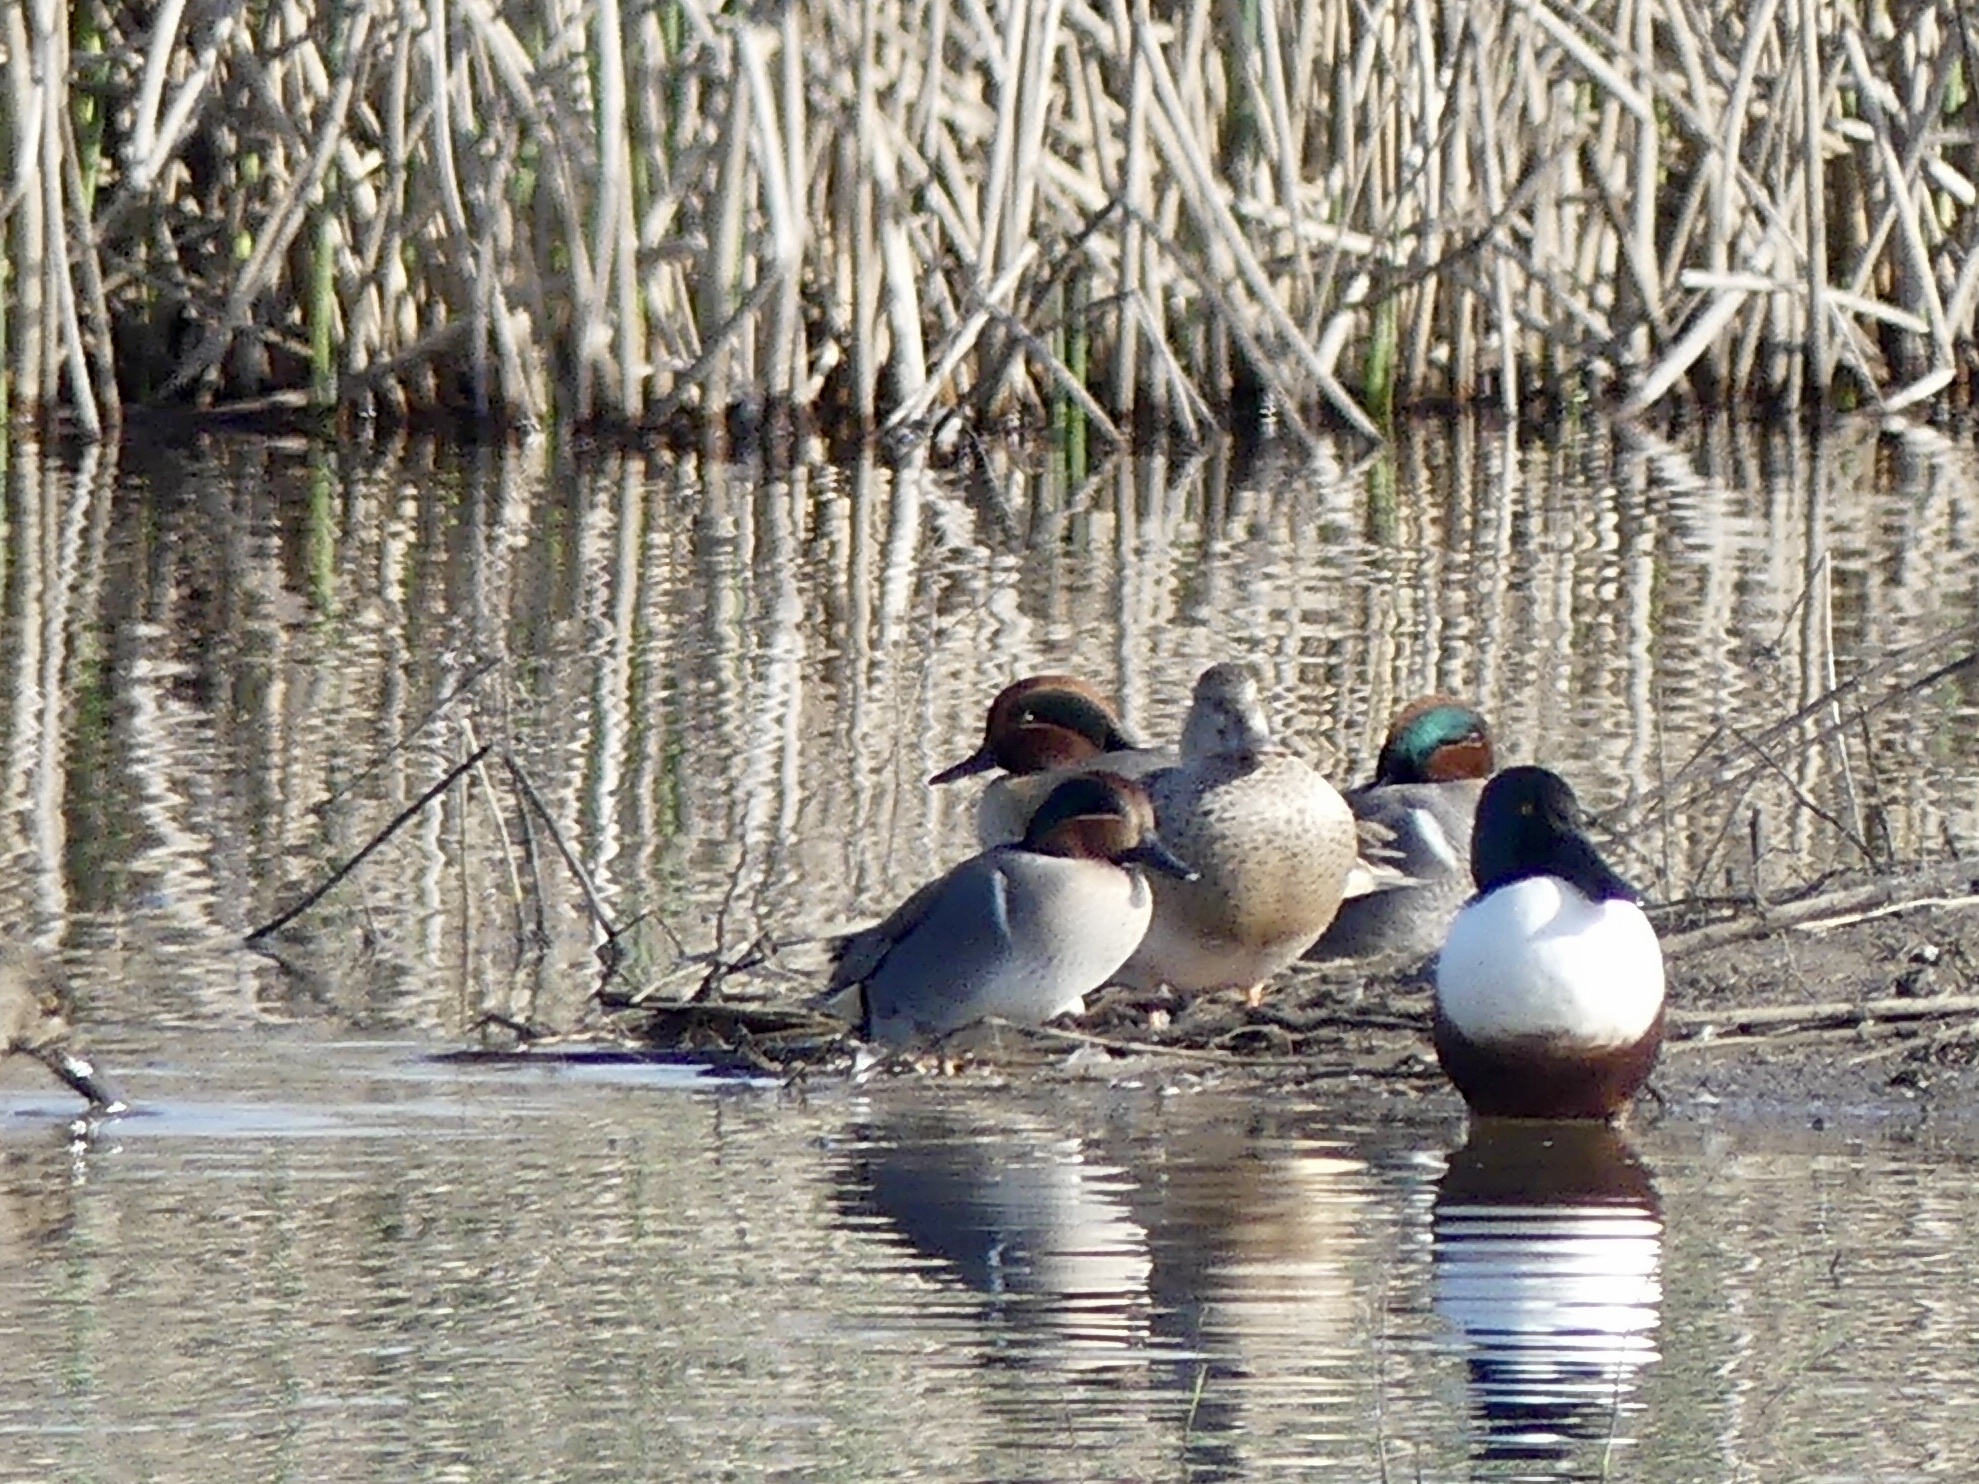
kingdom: Animalia
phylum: Chordata
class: Aves
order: Anseriformes
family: Anatidae
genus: Anas
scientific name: Anas crecca
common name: Eurasian teal
